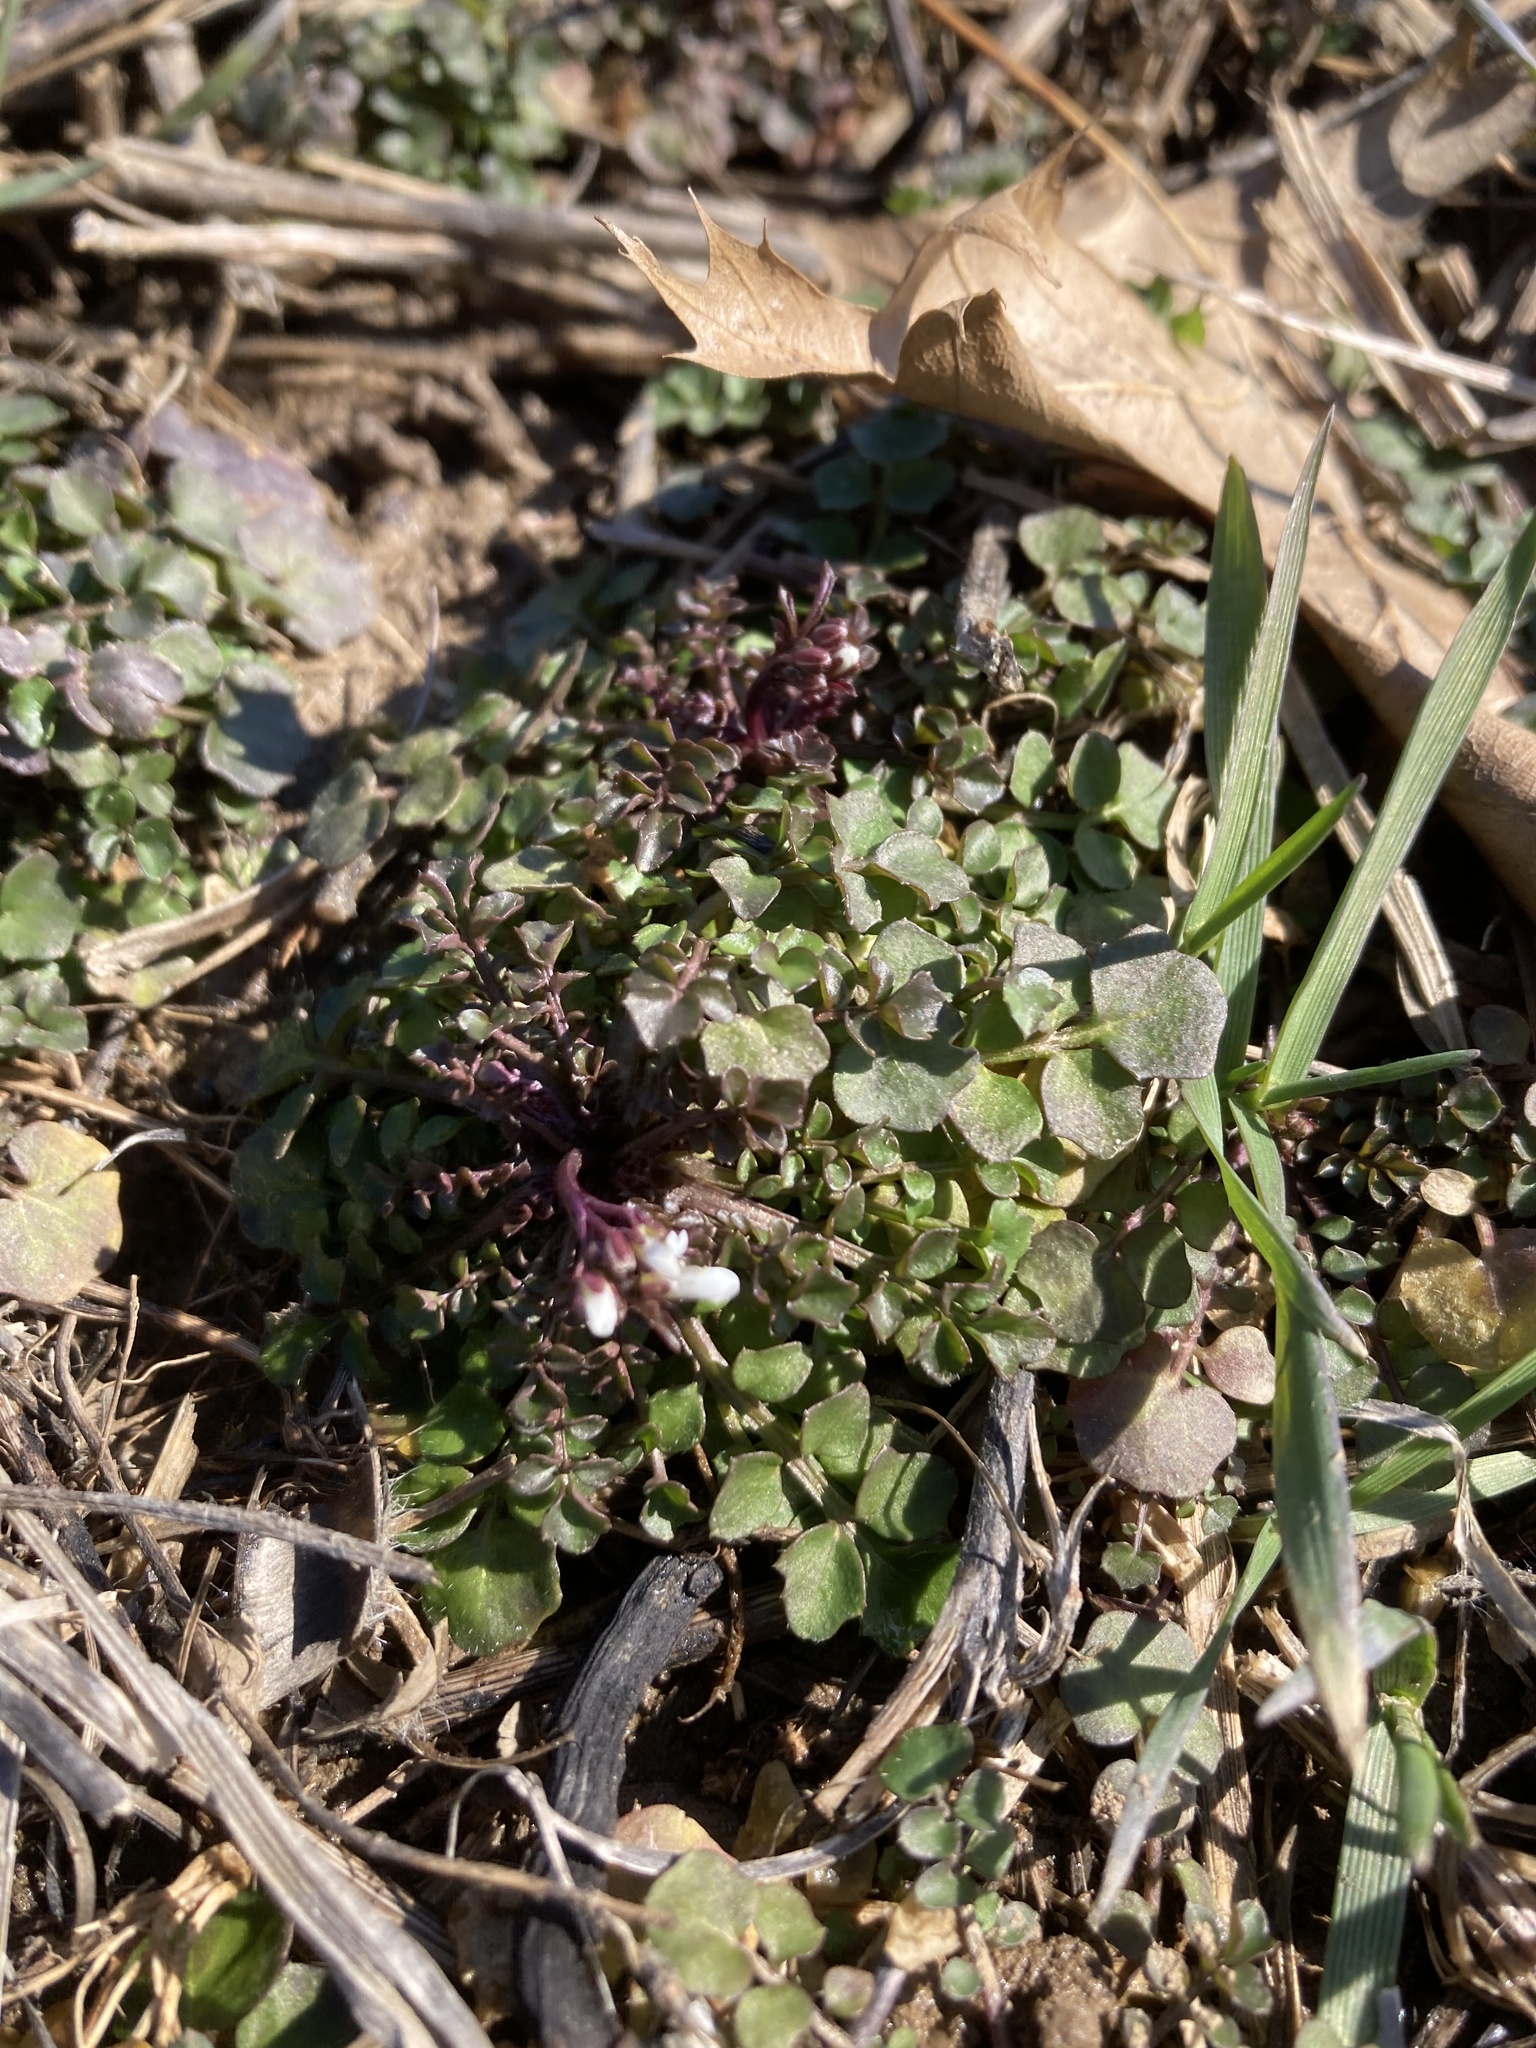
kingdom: Plantae
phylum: Tracheophyta
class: Magnoliopsida
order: Brassicales
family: Brassicaceae
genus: Cardamine
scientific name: Cardamine hirsuta
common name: Hairy bittercress
